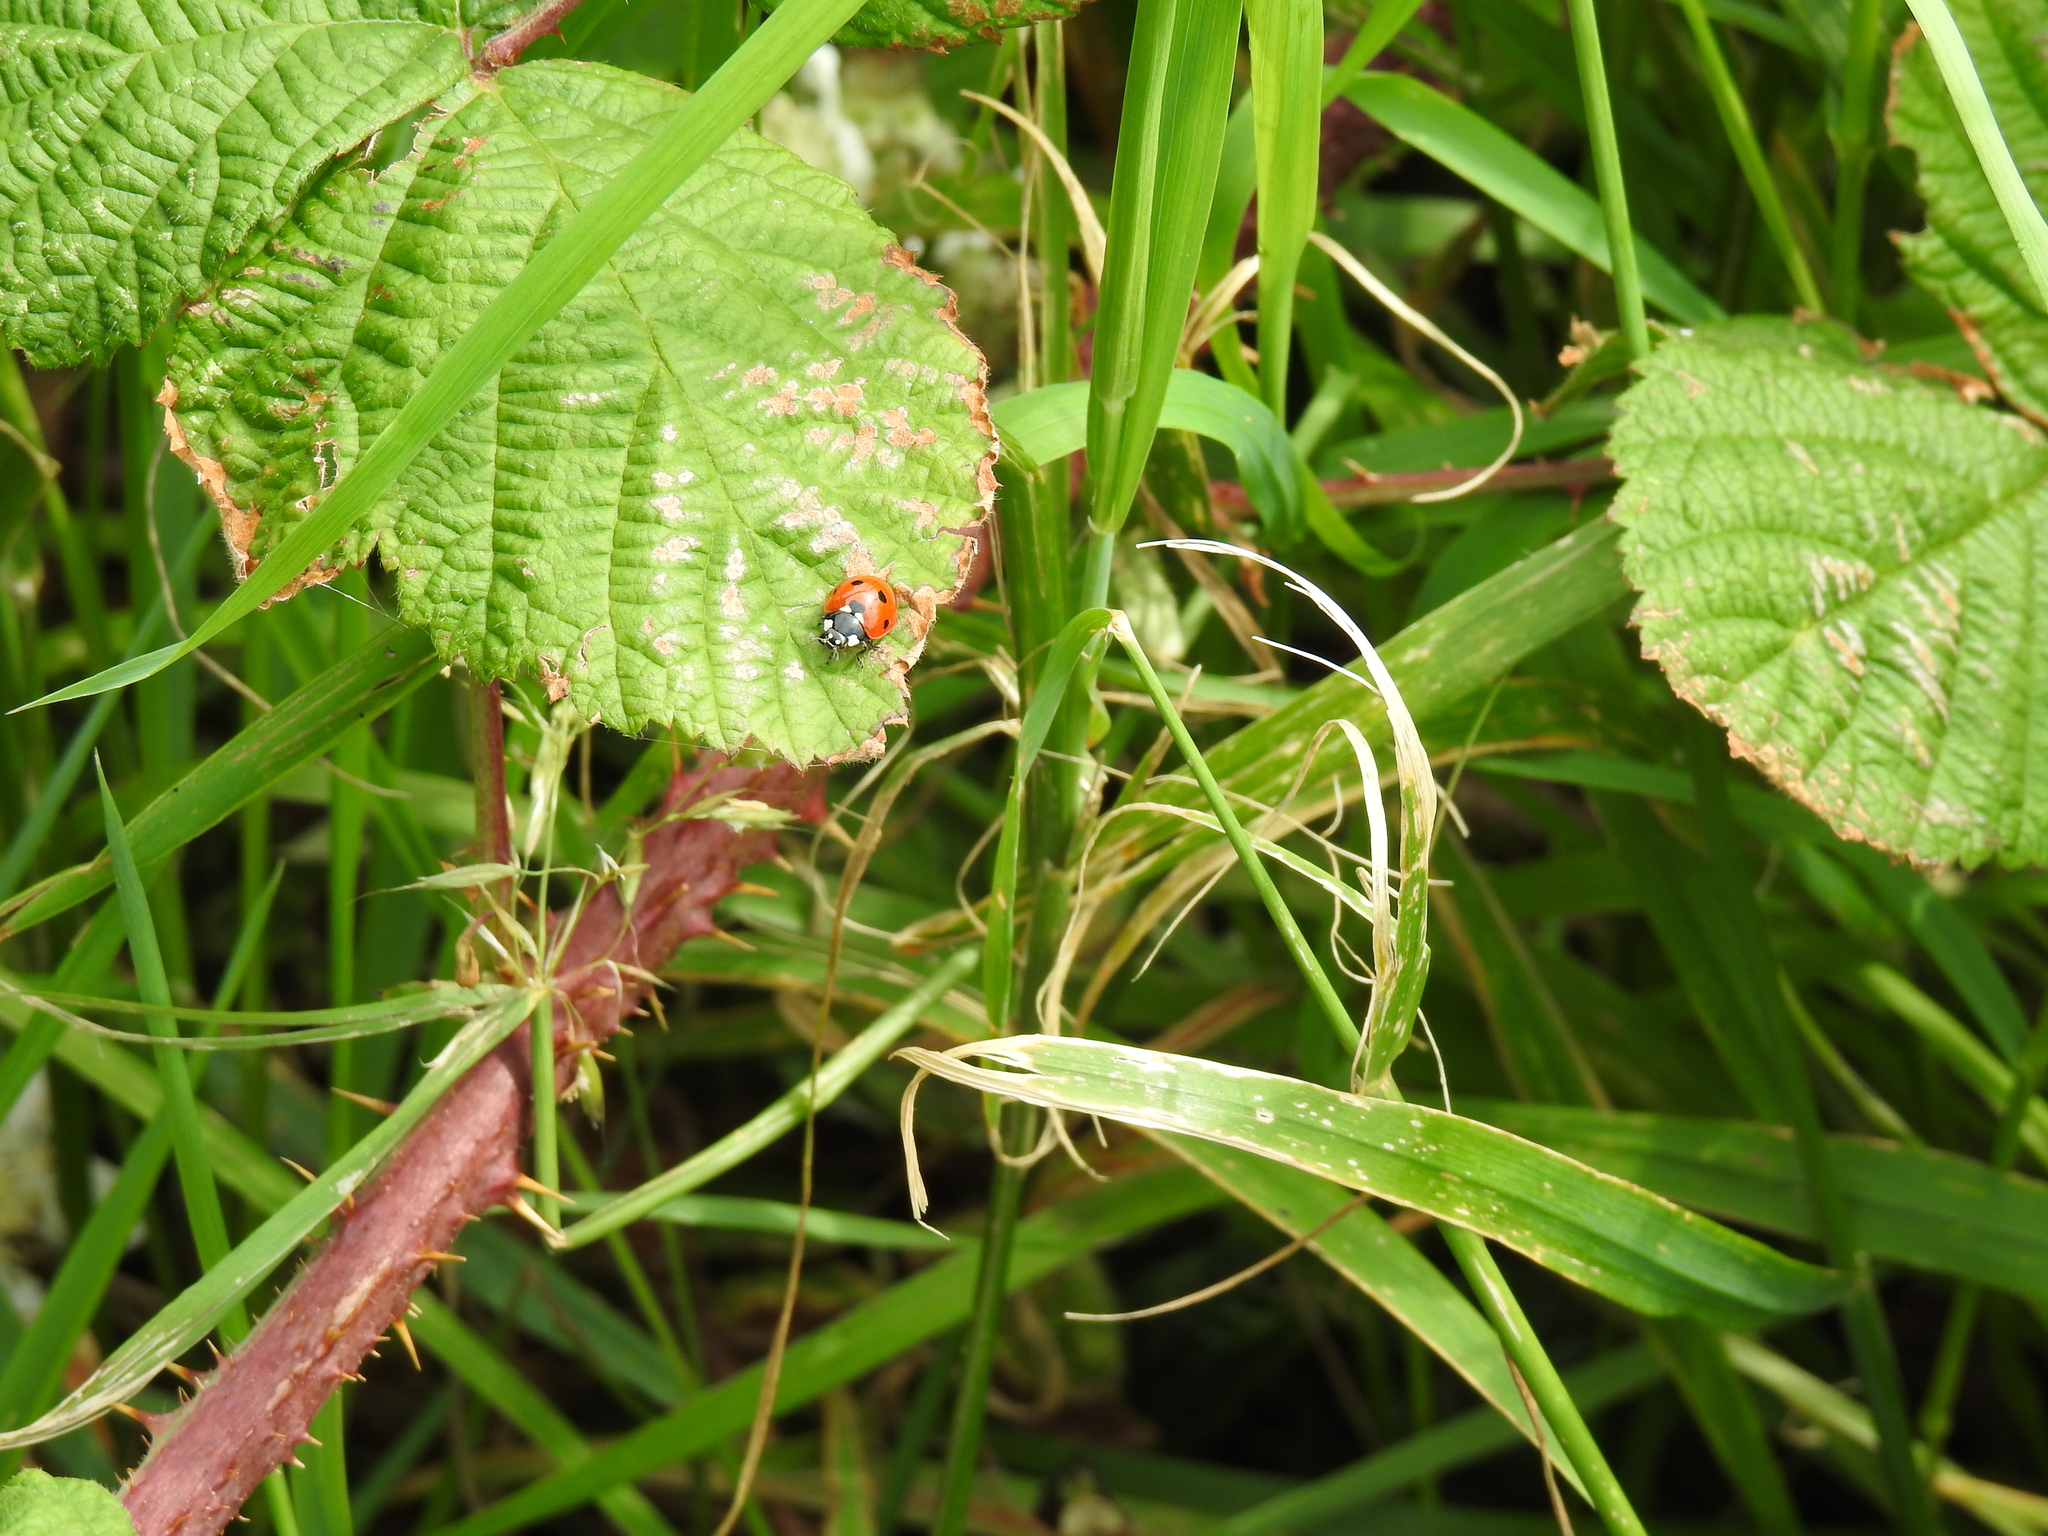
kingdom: Animalia
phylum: Arthropoda
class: Insecta
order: Coleoptera
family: Coccinellidae
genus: Coccinella
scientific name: Coccinella septempunctata
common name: Sevenspotted lady beetle
